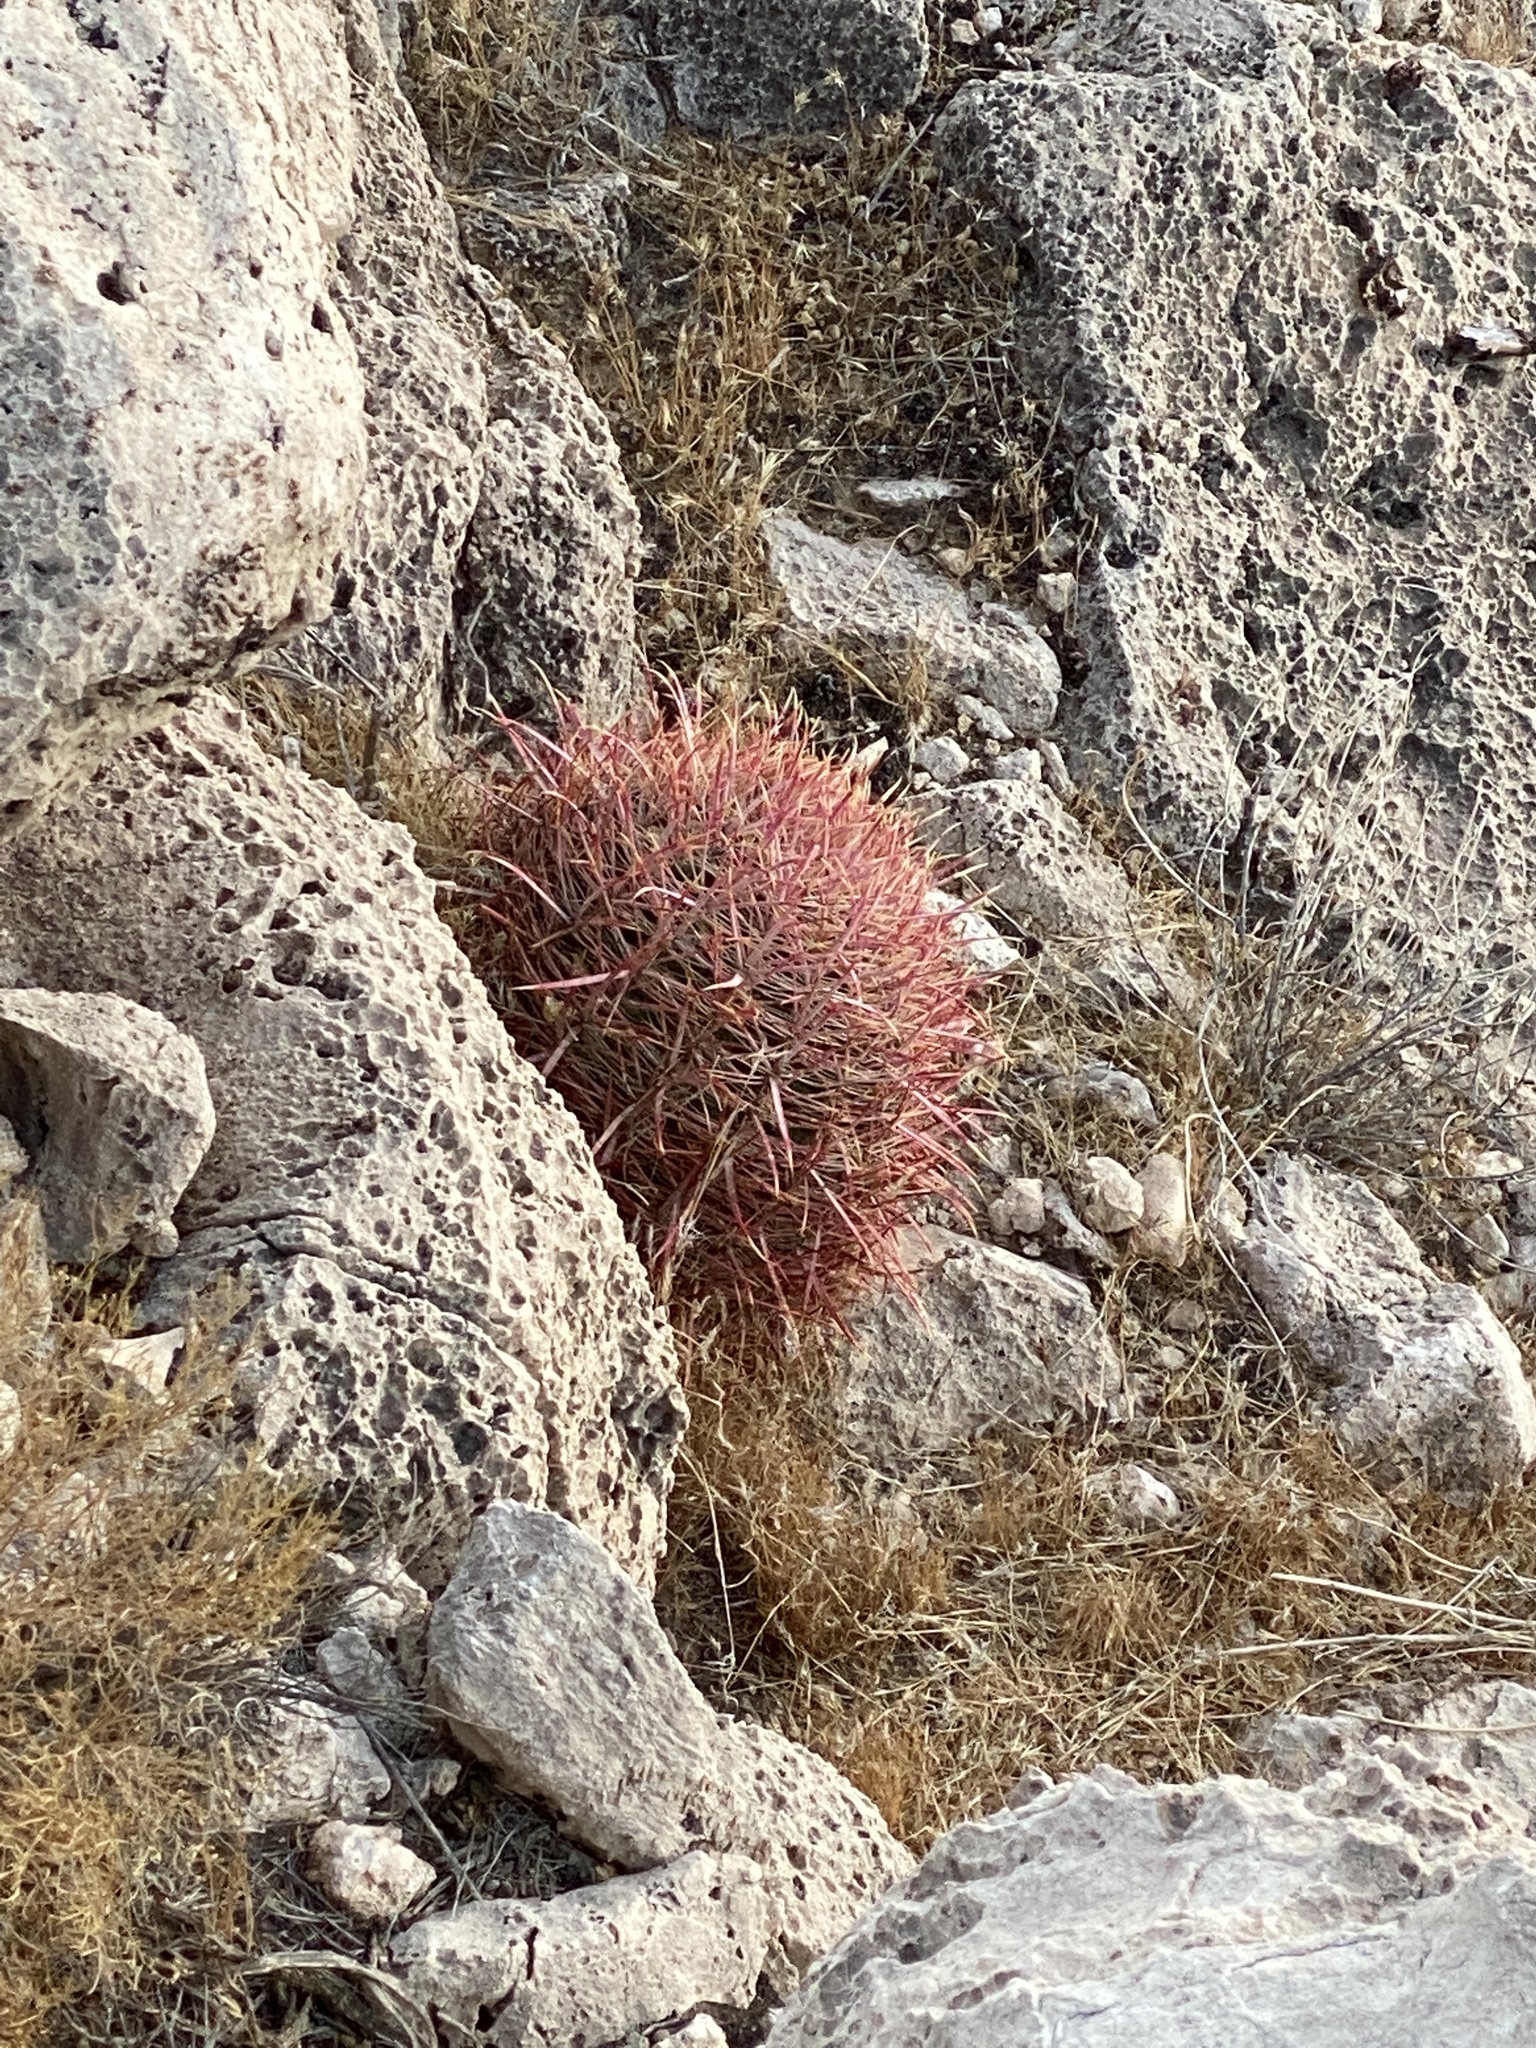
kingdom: Plantae
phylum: Tracheophyta
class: Magnoliopsida
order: Caryophyllales
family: Cactaceae
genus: Ferocactus
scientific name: Ferocactus cylindraceus
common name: California barrel cactus
